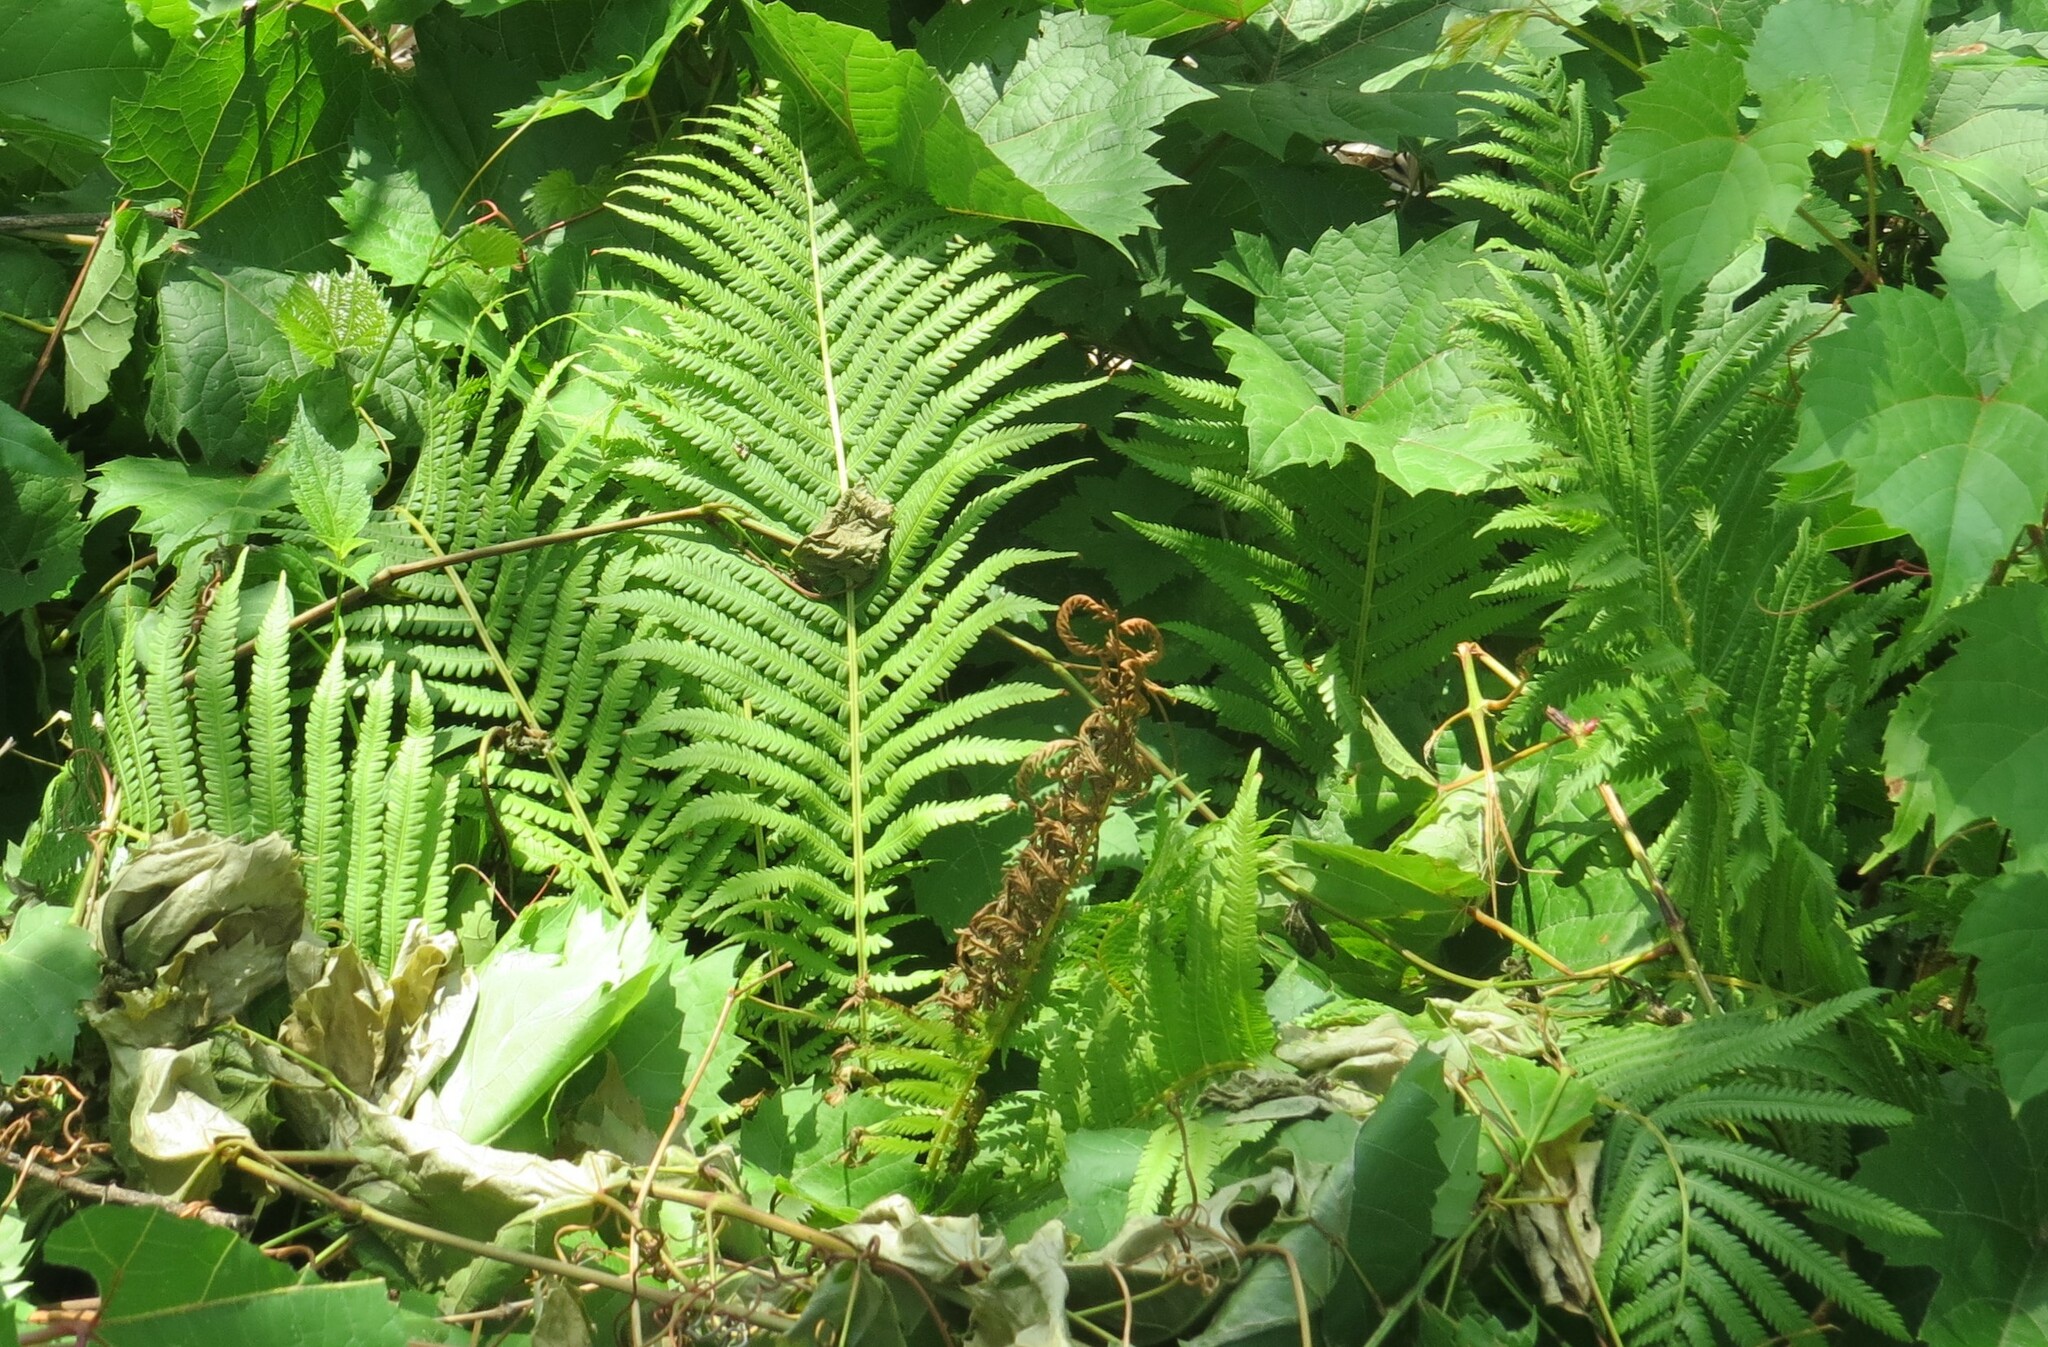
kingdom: Plantae
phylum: Tracheophyta
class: Polypodiopsida
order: Polypodiales
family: Onocleaceae
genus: Matteuccia
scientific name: Matteuccia struthiopteris
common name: Ostrich fern
